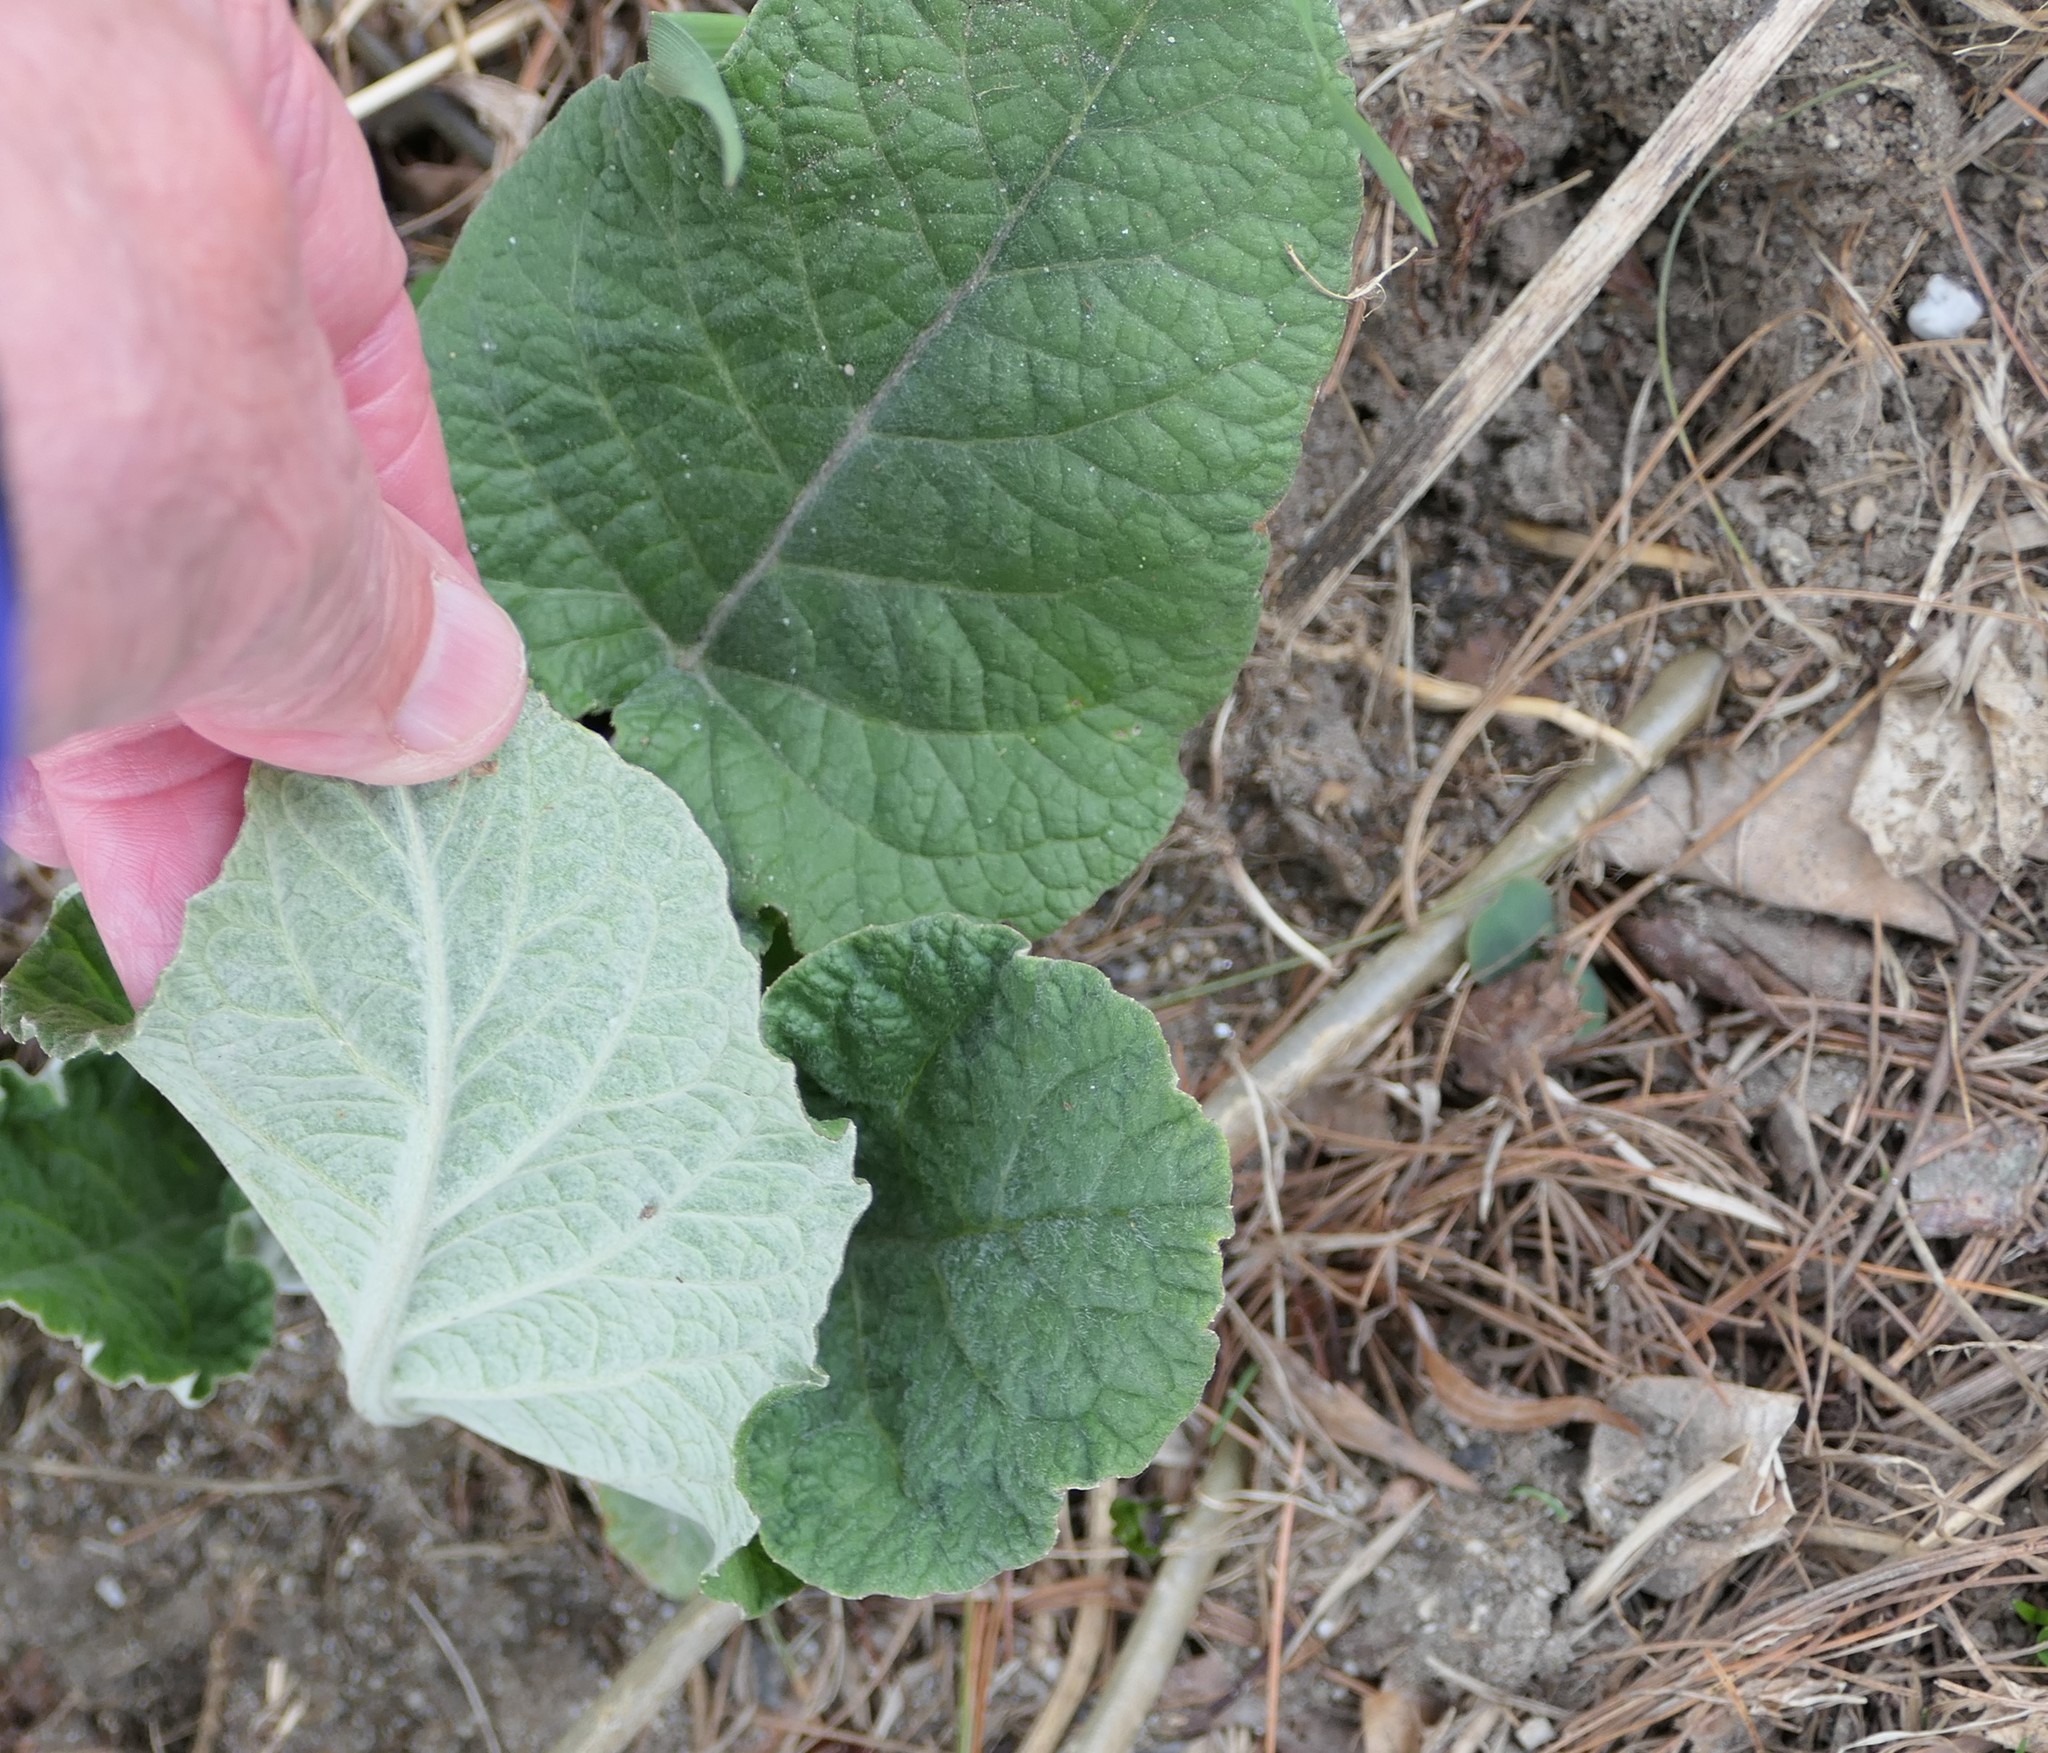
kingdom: Plantae
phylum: Tracheophyta
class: Magnoliopsida
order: Asterales
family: Asteraceae
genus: Arctium
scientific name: Arctium
